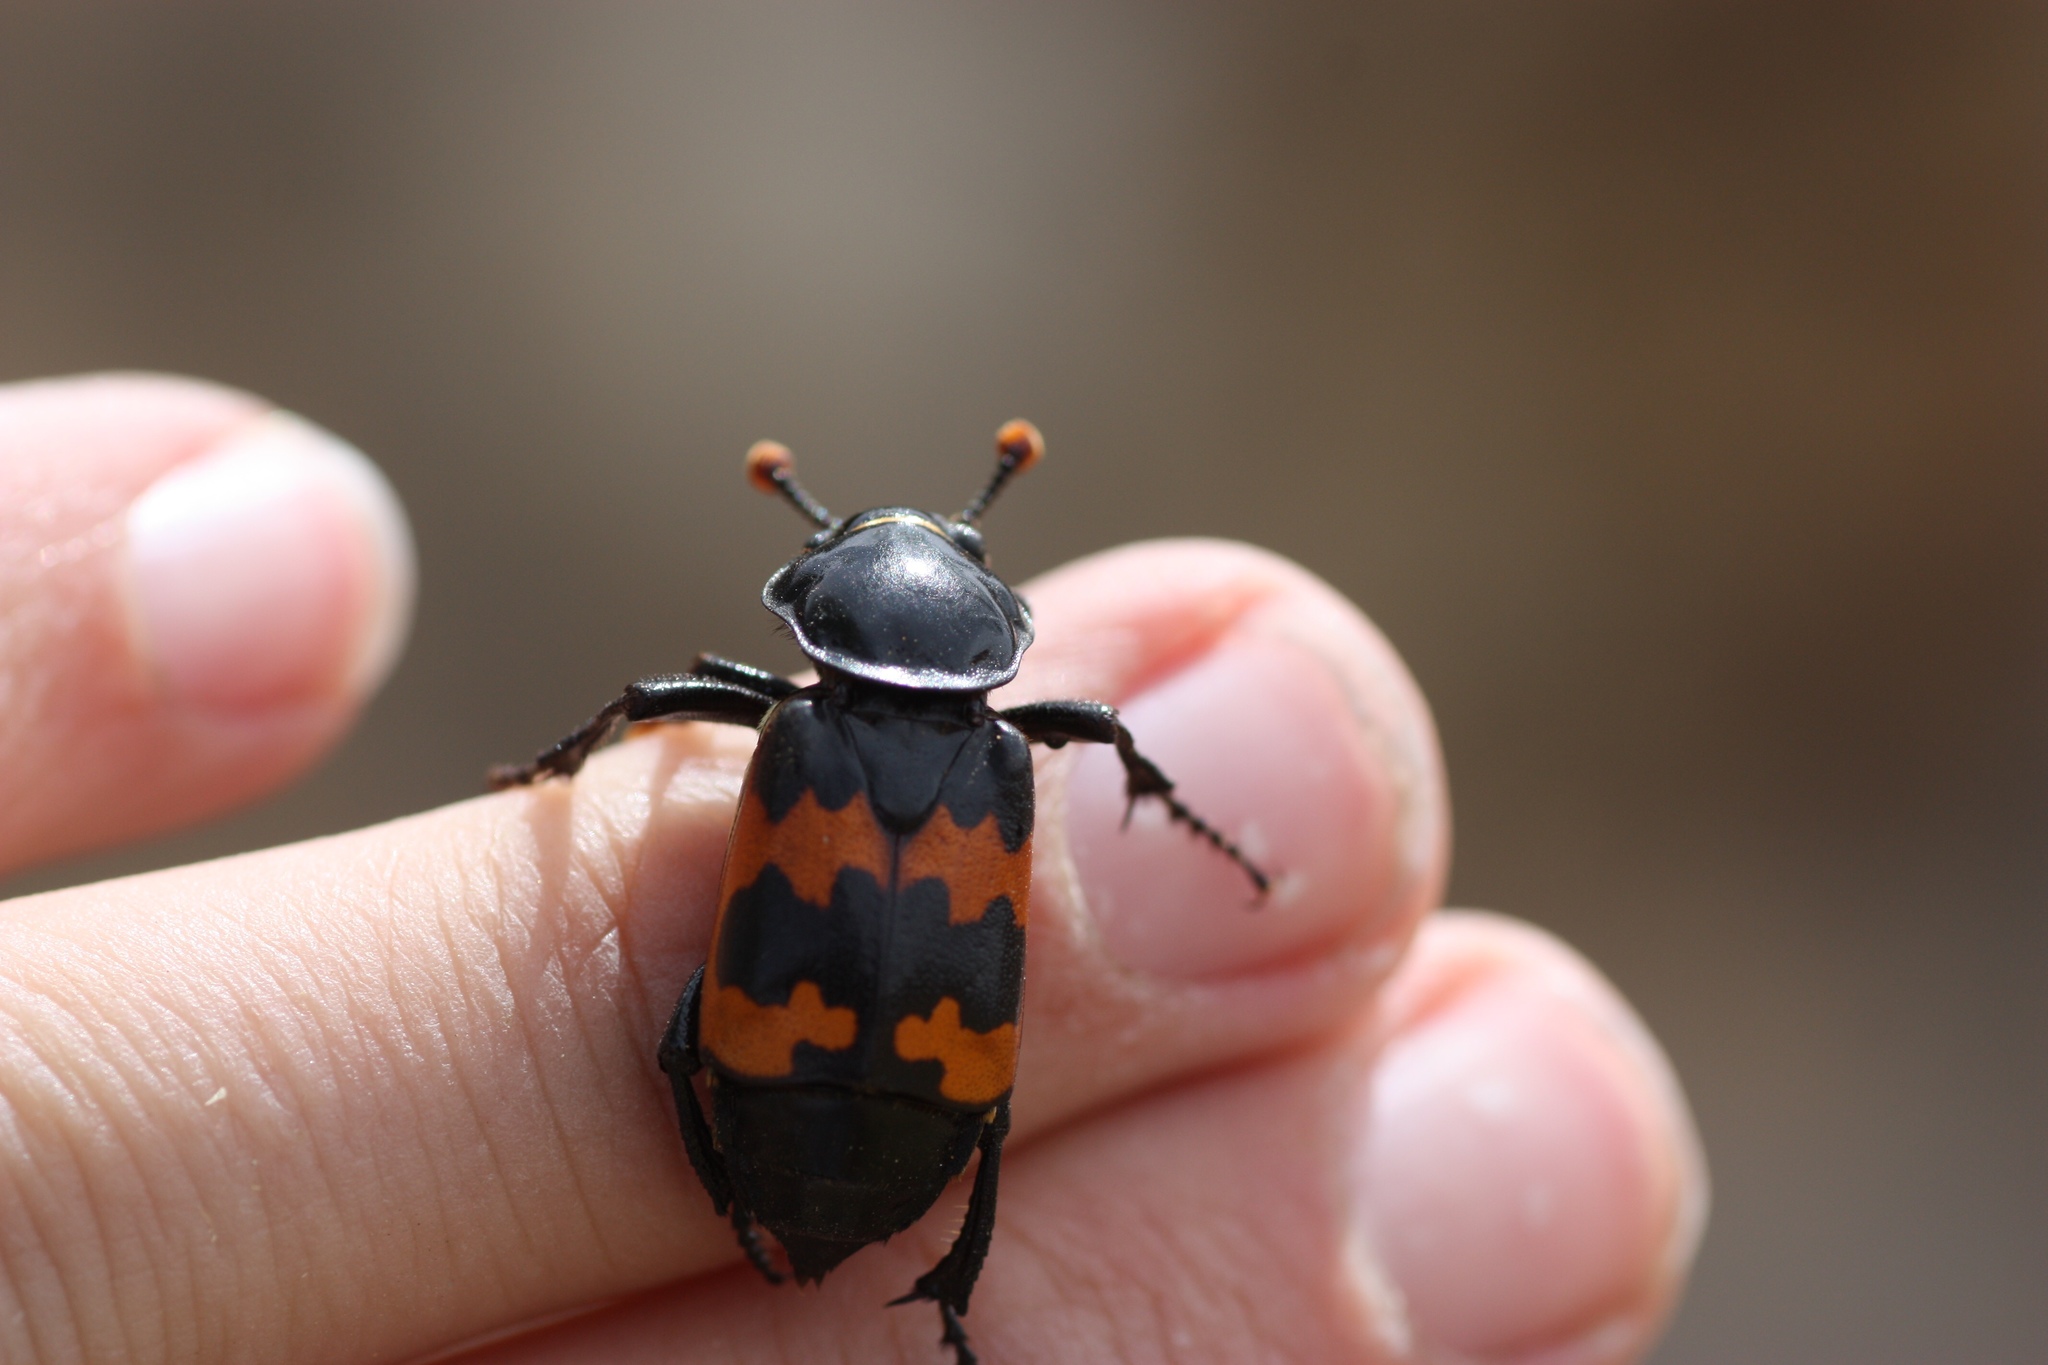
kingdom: Animalia
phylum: Arthropoda
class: Insecta
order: Coleoptera
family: Staphylinidae
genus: Nicrophorus
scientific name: Nicrophorus marginatus
